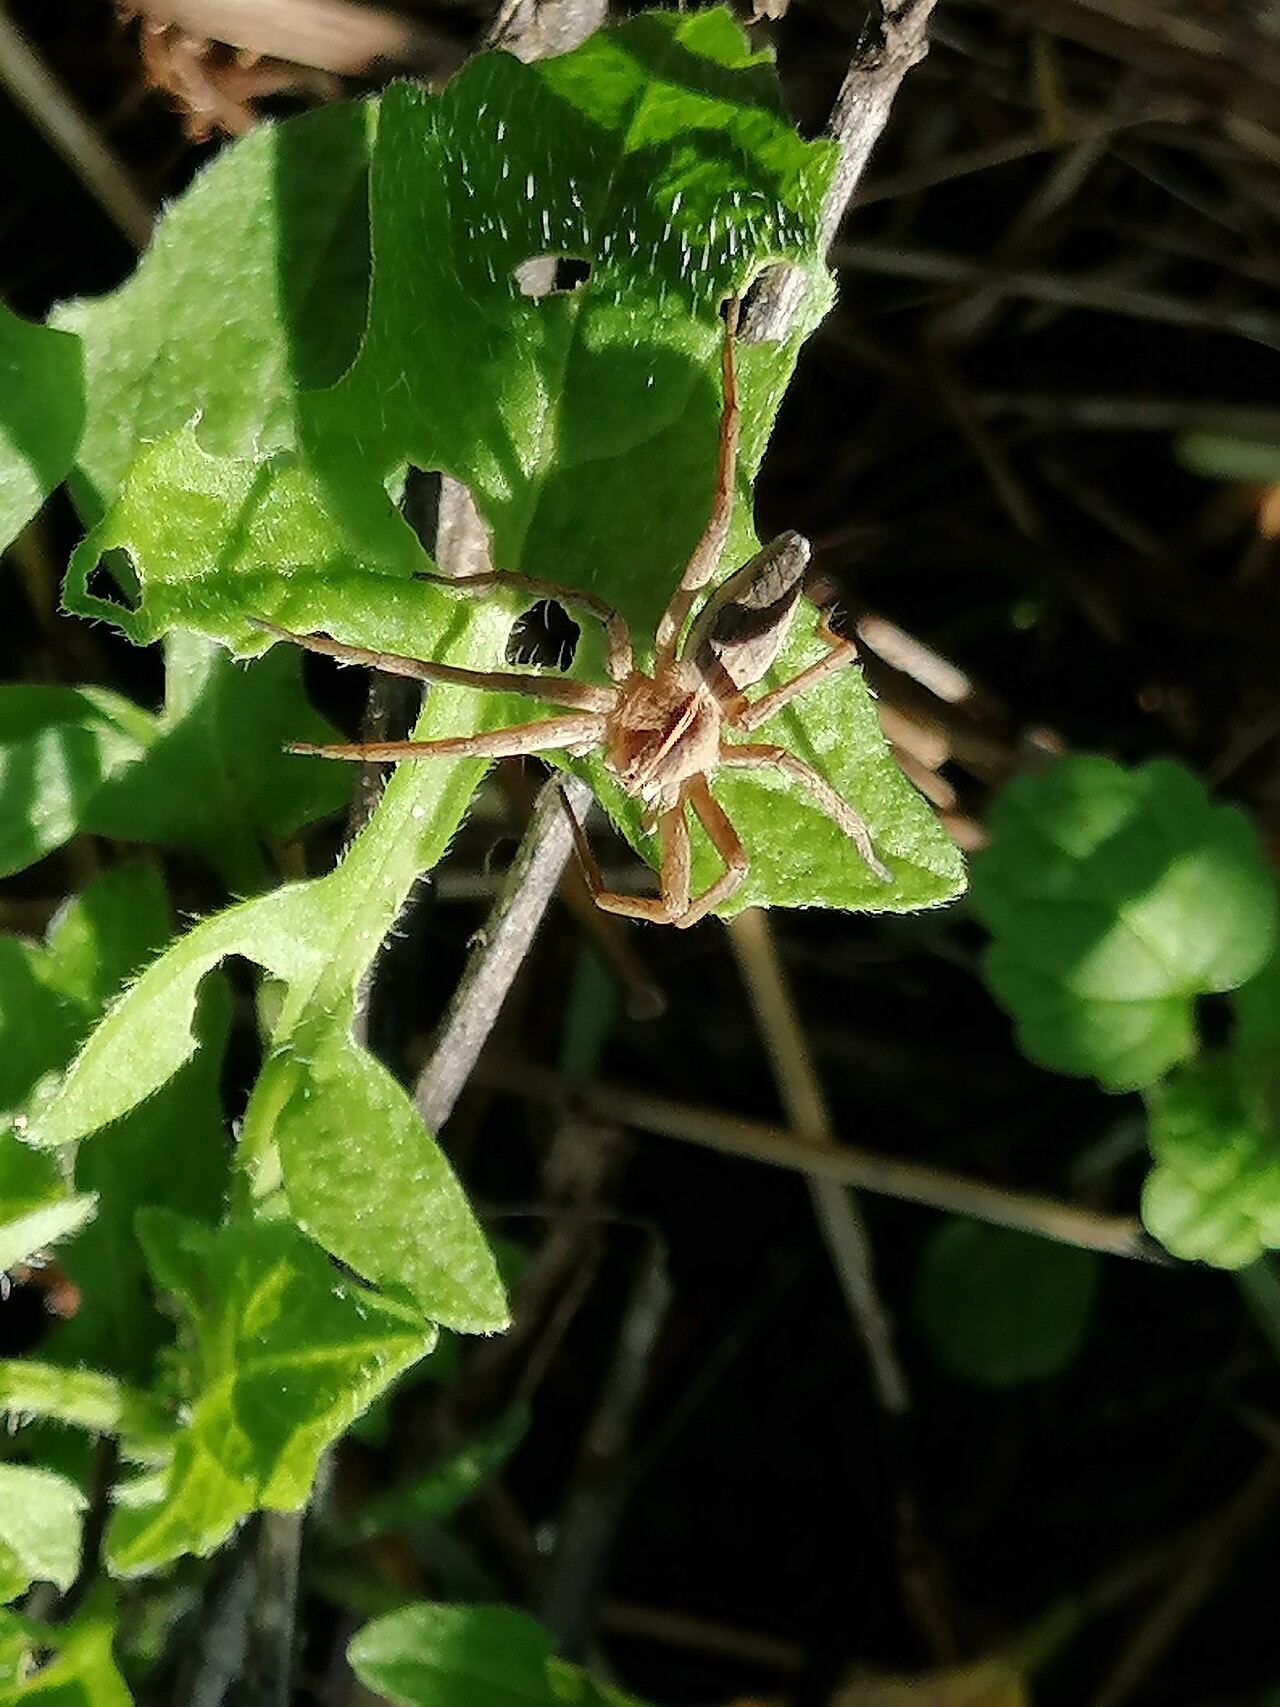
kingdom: Animalia
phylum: Arthropoda
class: Arachnida
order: Araneae
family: Pisauridae
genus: Pisaura
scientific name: Pisaura mirabilis
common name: Tent spider
